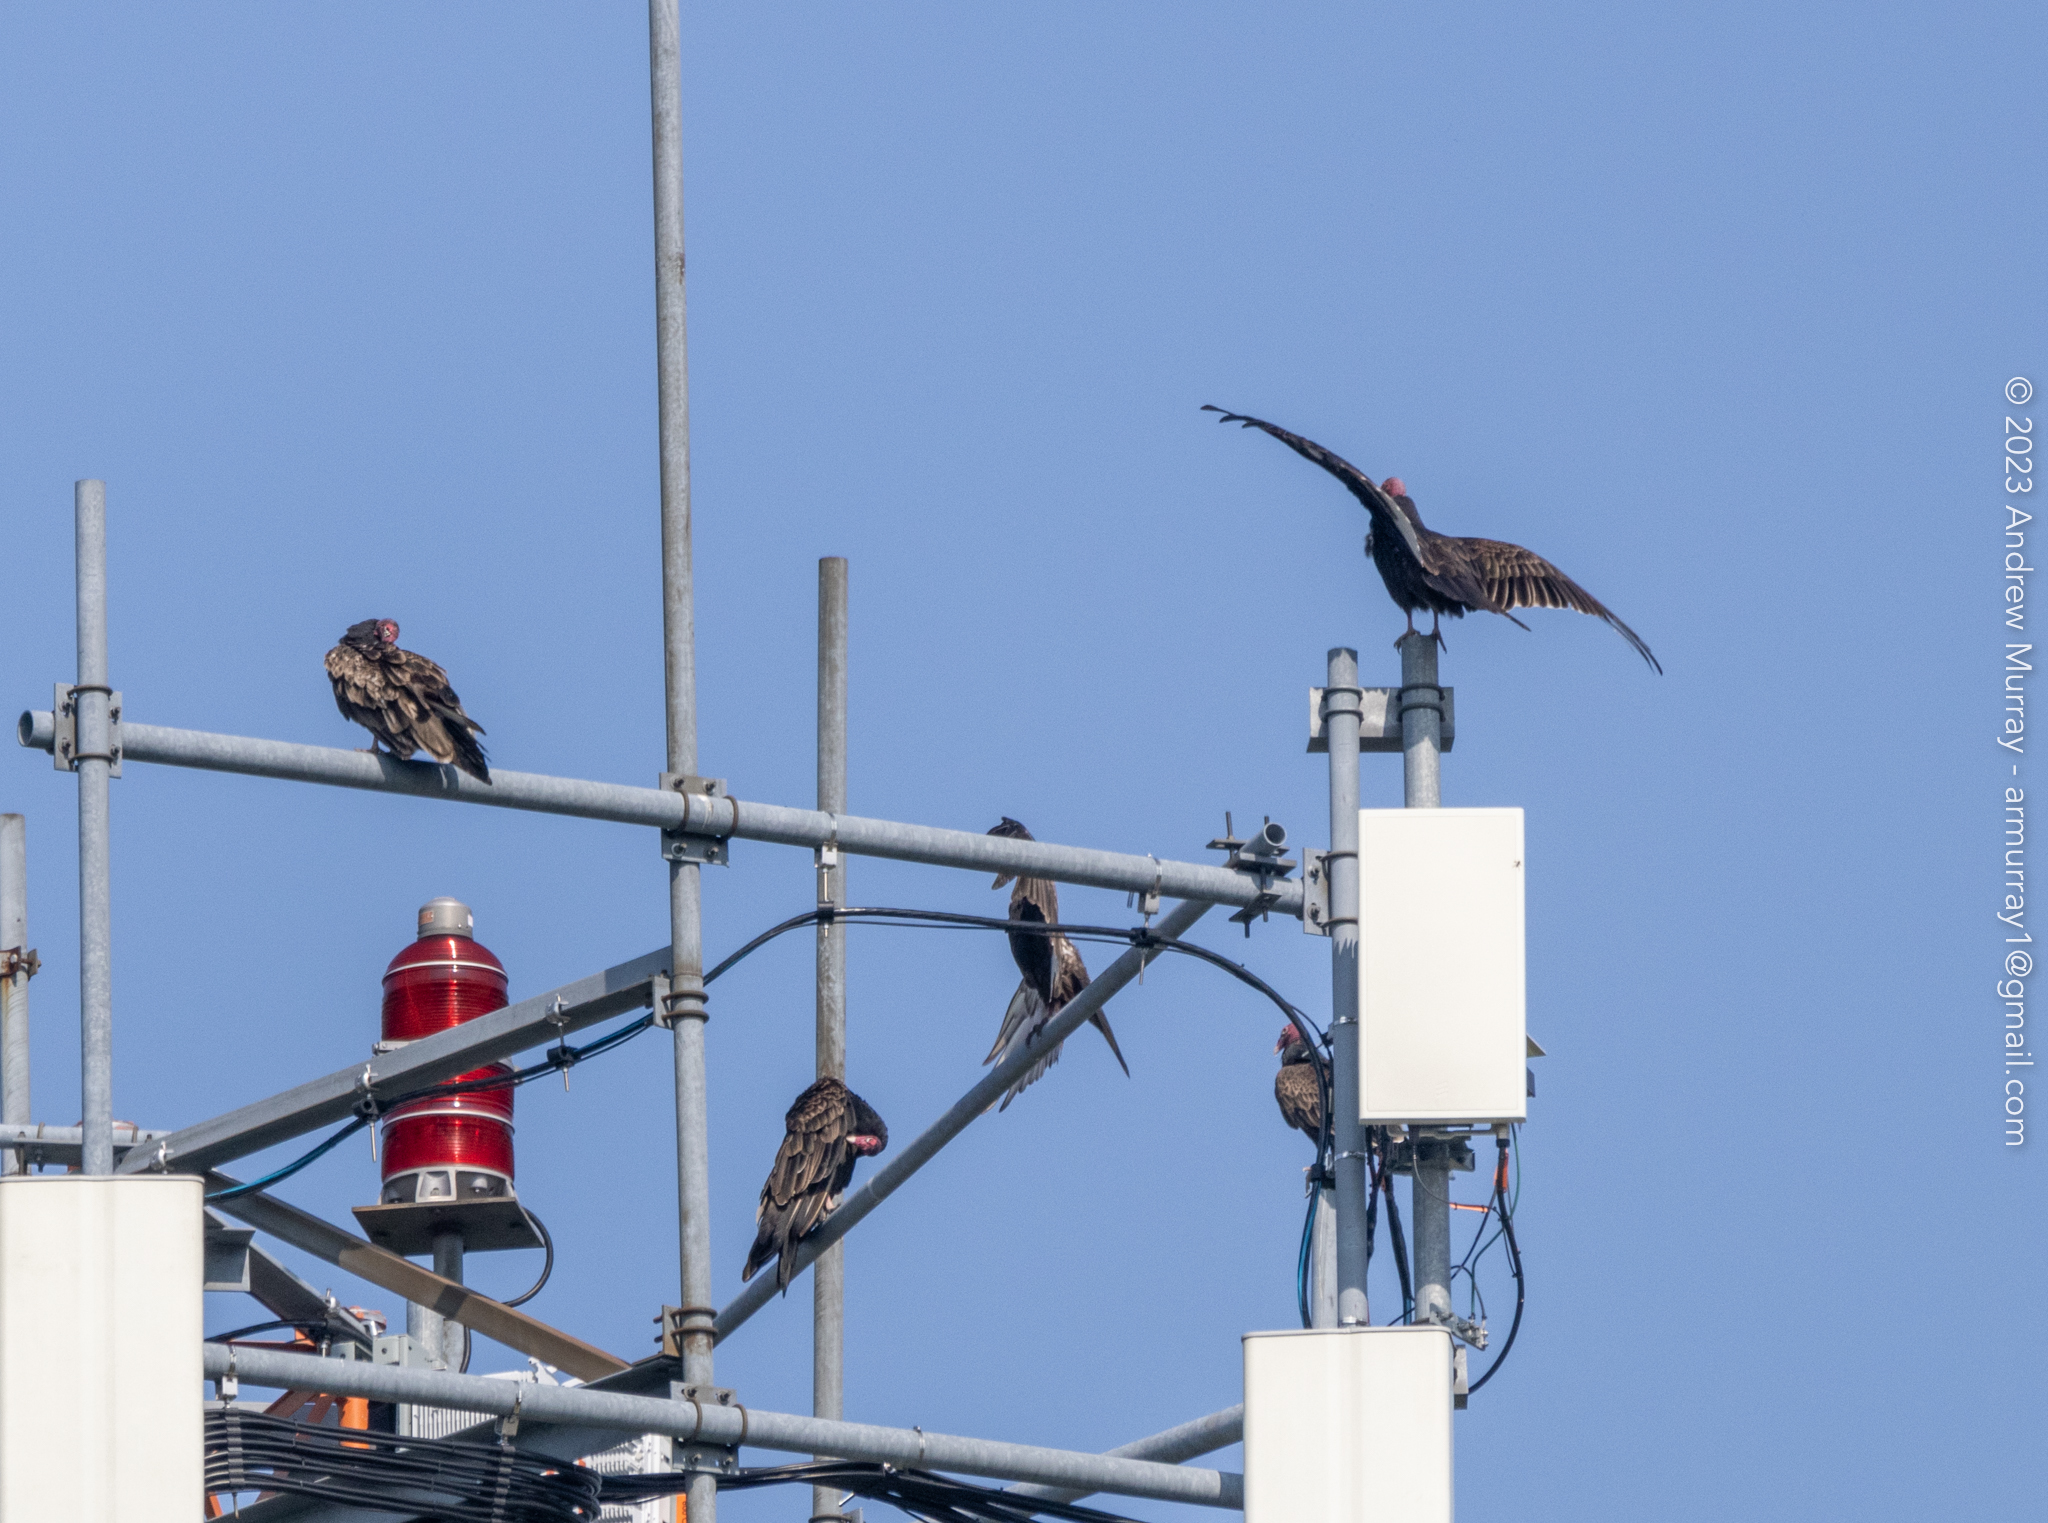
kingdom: Animalia
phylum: Chordata
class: Aves
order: Accipitriformes
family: Cathartidae
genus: Cathartes
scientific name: Cathartes aura
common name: Turkey vulture
